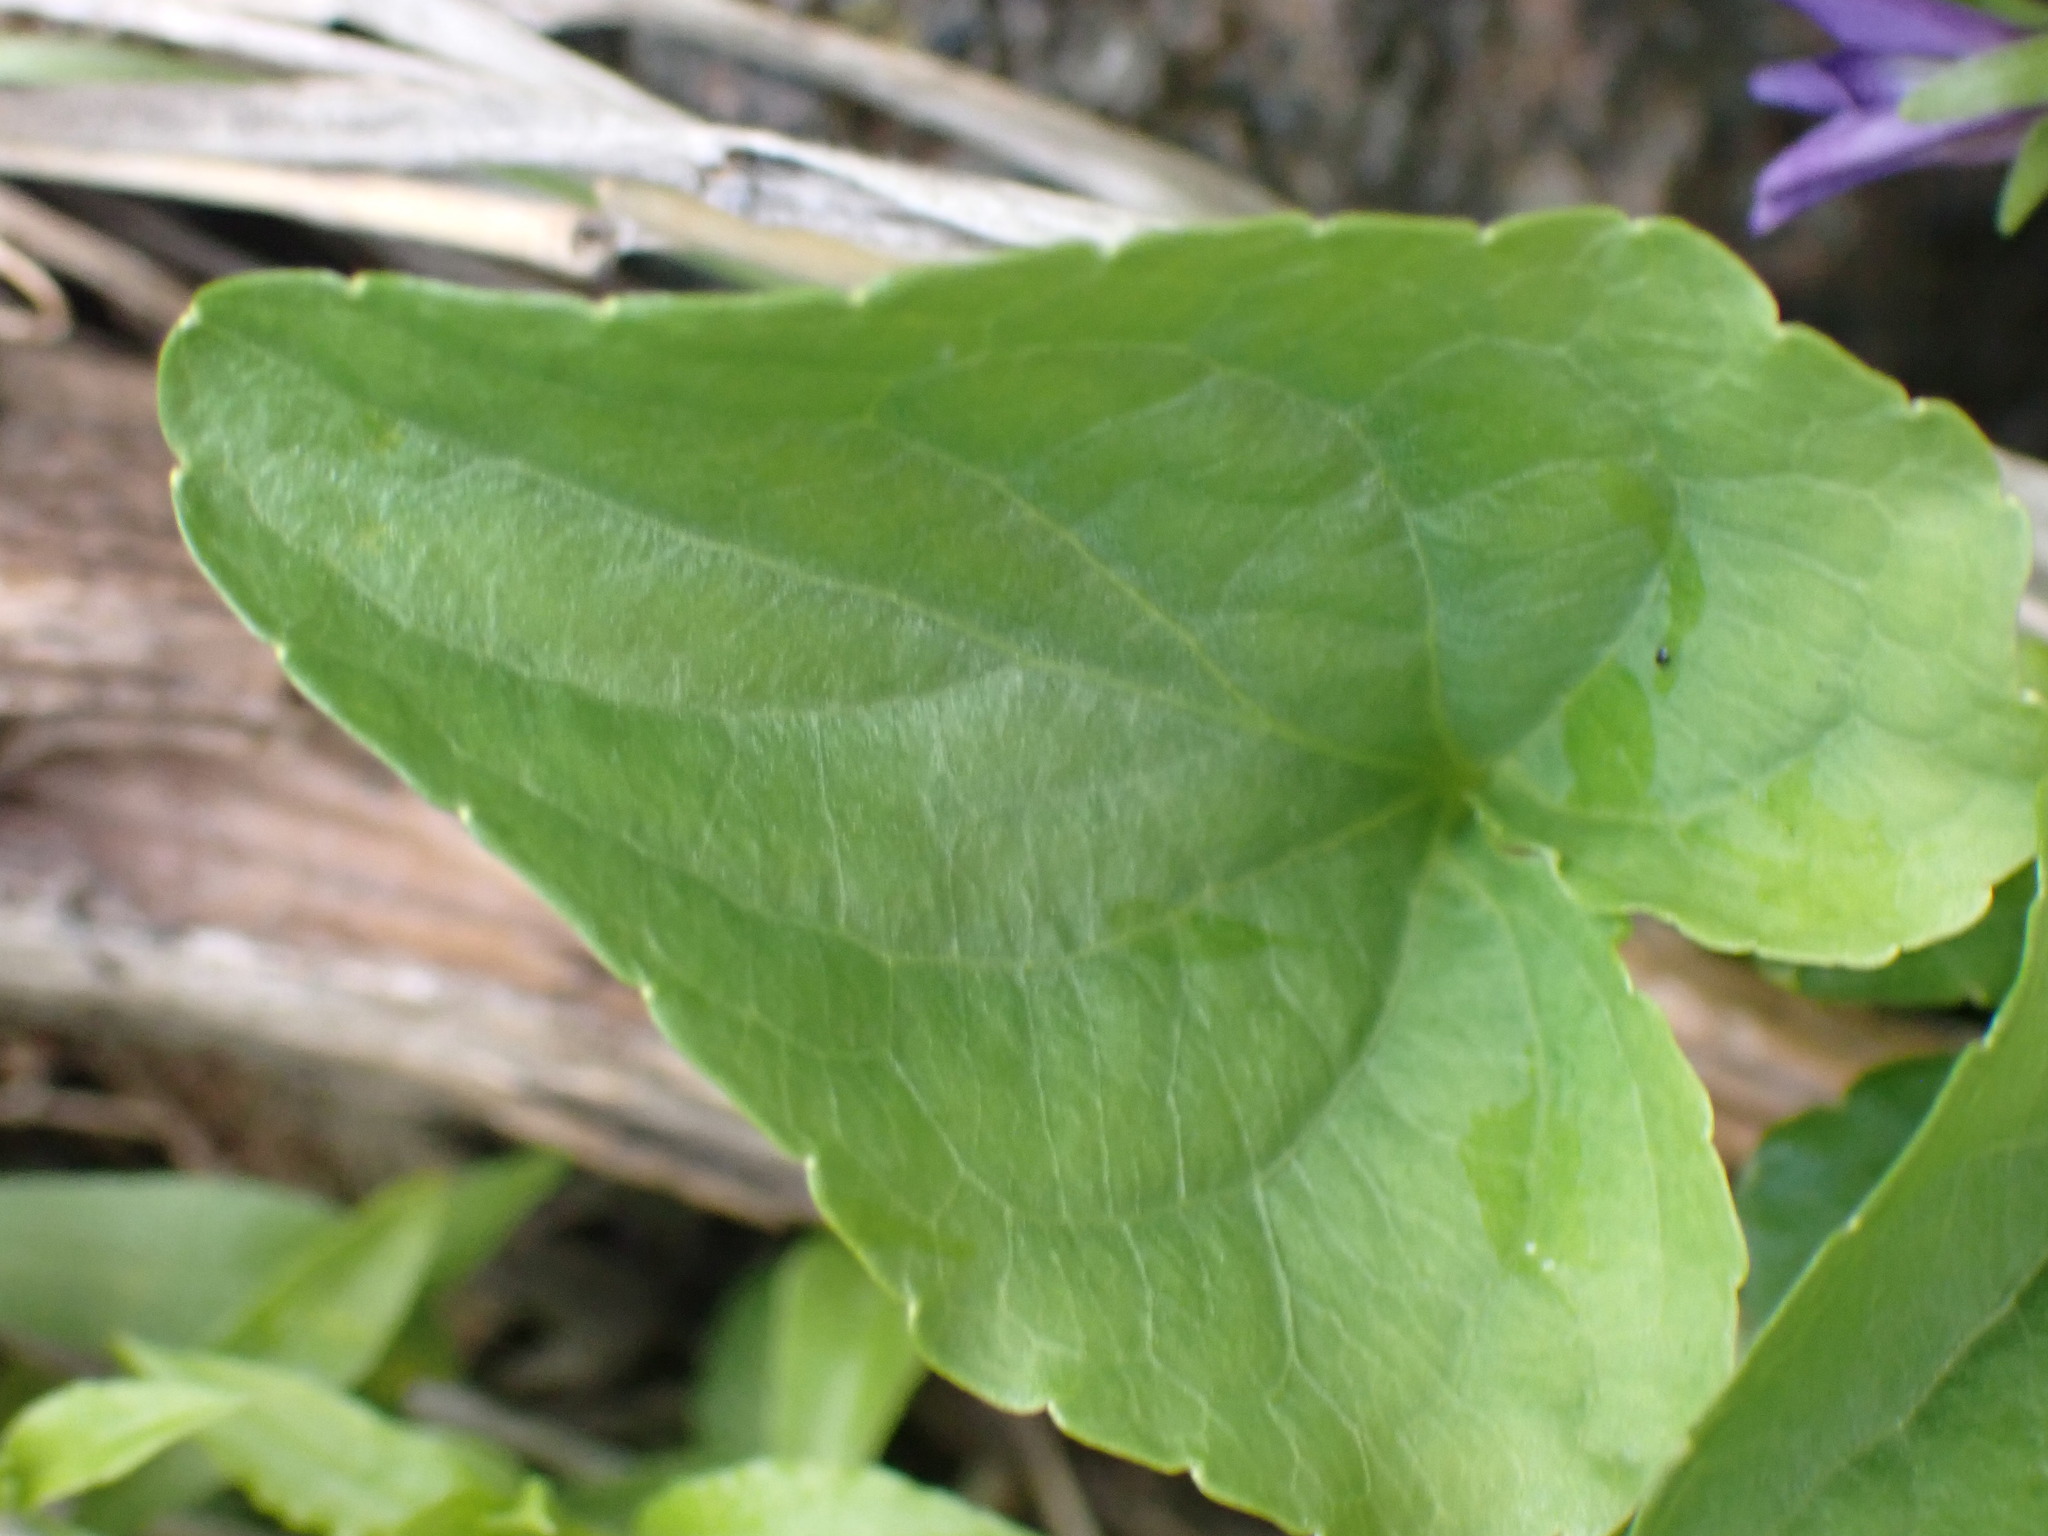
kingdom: Plantae
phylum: Tracheophyta
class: Magnoliopsida
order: Malpighiales
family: Violaceae
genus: Viola
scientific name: Viola nephrophylla
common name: Blue meadow violet
